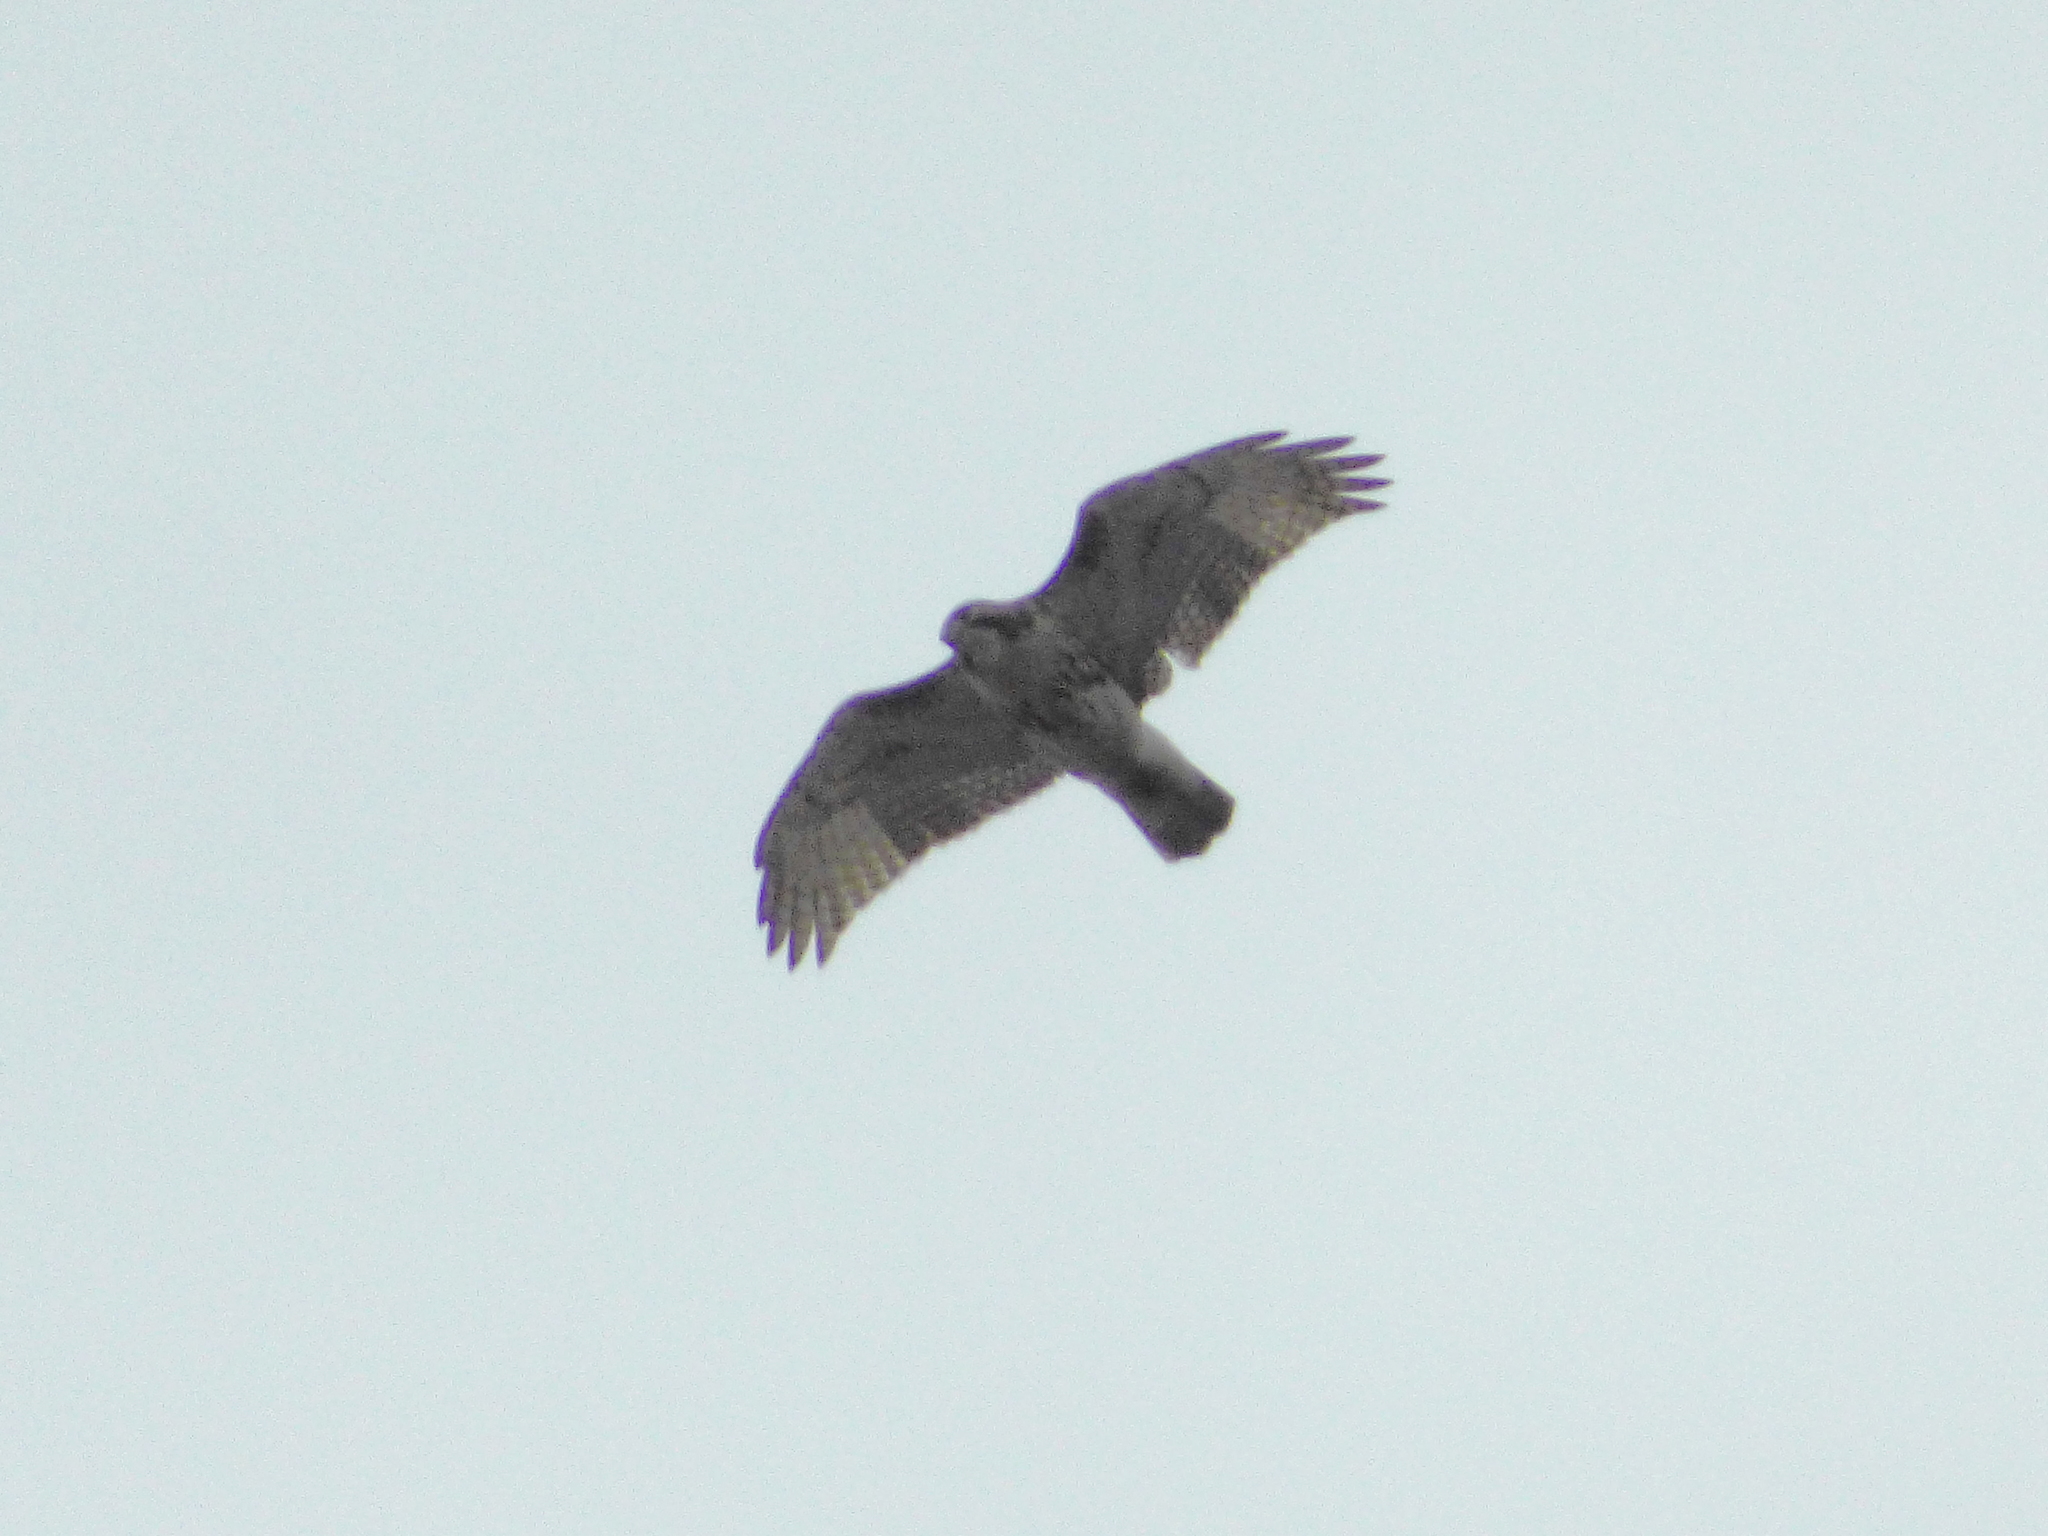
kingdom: Animalia
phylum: Chordata
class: Aves
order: Accipitriformes
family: Accipitridae
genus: Buteo
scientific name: Buteo jamaicensis
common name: Red-tailed hawk
